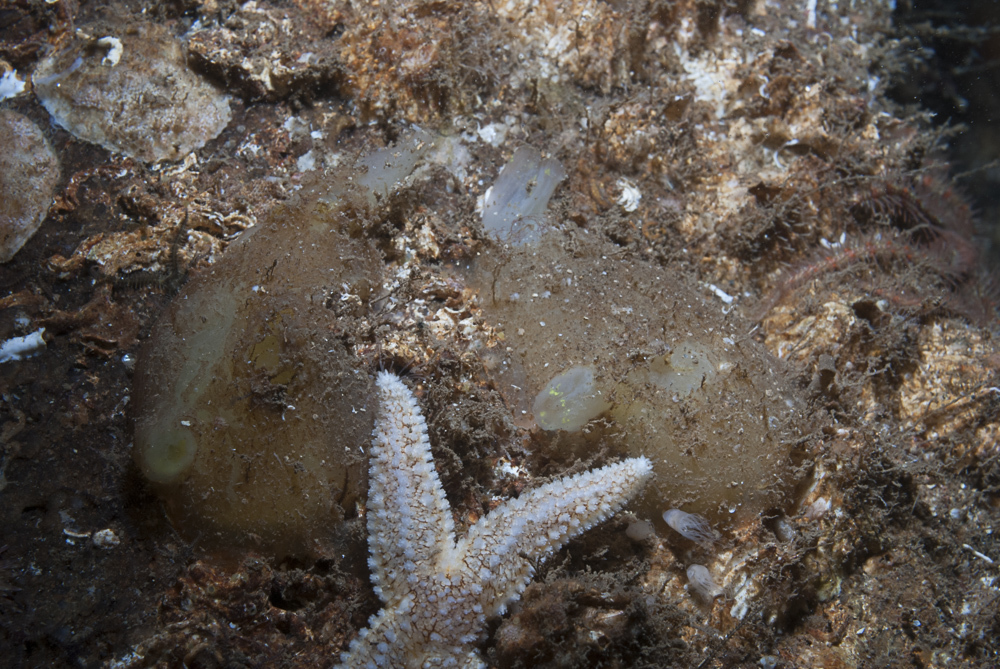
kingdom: Animalia
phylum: Chordata
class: Ascidiacea
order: Phlebobranchia
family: Ascidiidae
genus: Ascidia
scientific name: Ascidia conchilega
